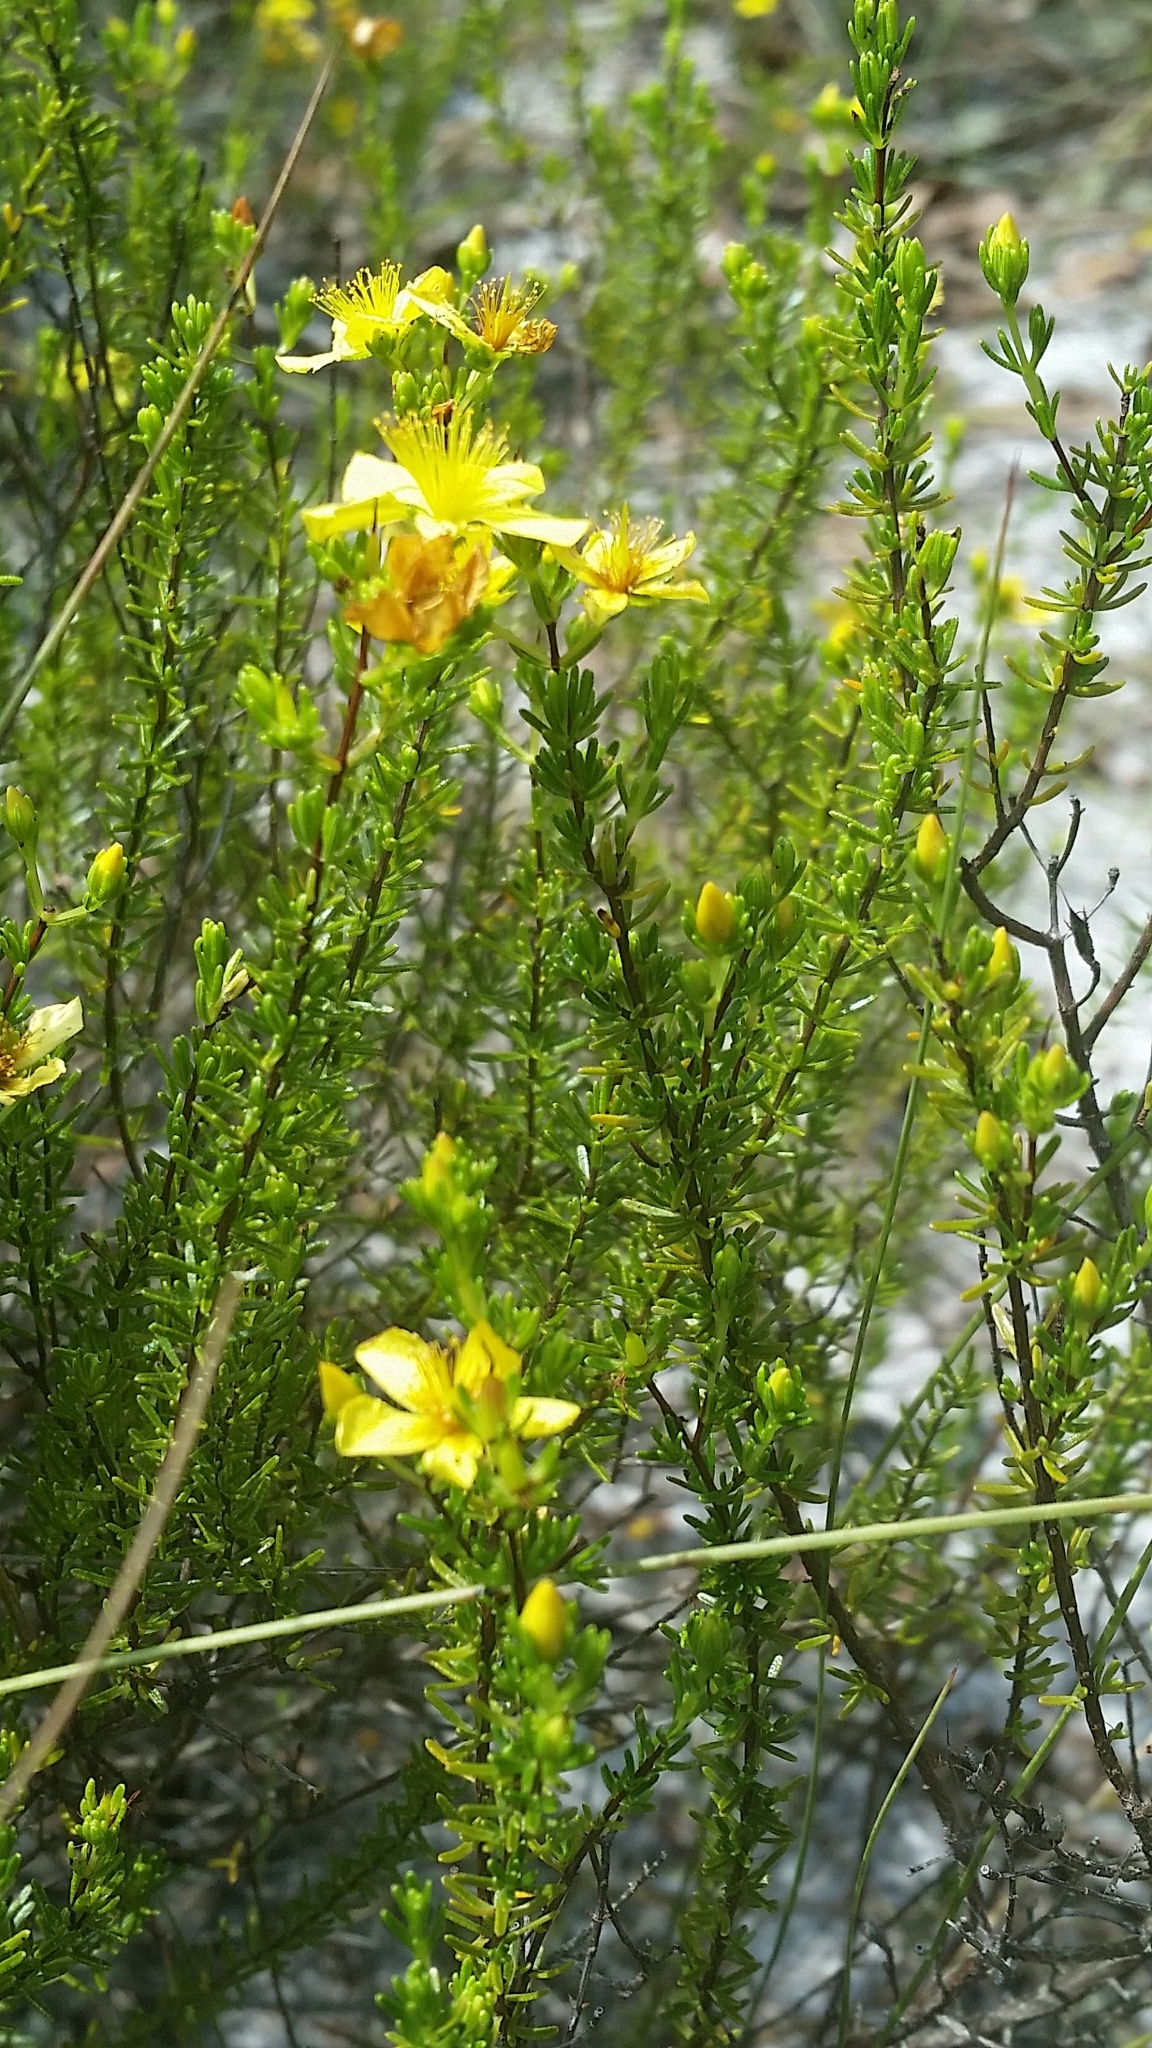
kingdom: Plantae
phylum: Tracheophyta
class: Magnoliopsida
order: Malpighiales
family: Hypericaceae
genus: Hypericum
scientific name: Hypericum tenuifolium
